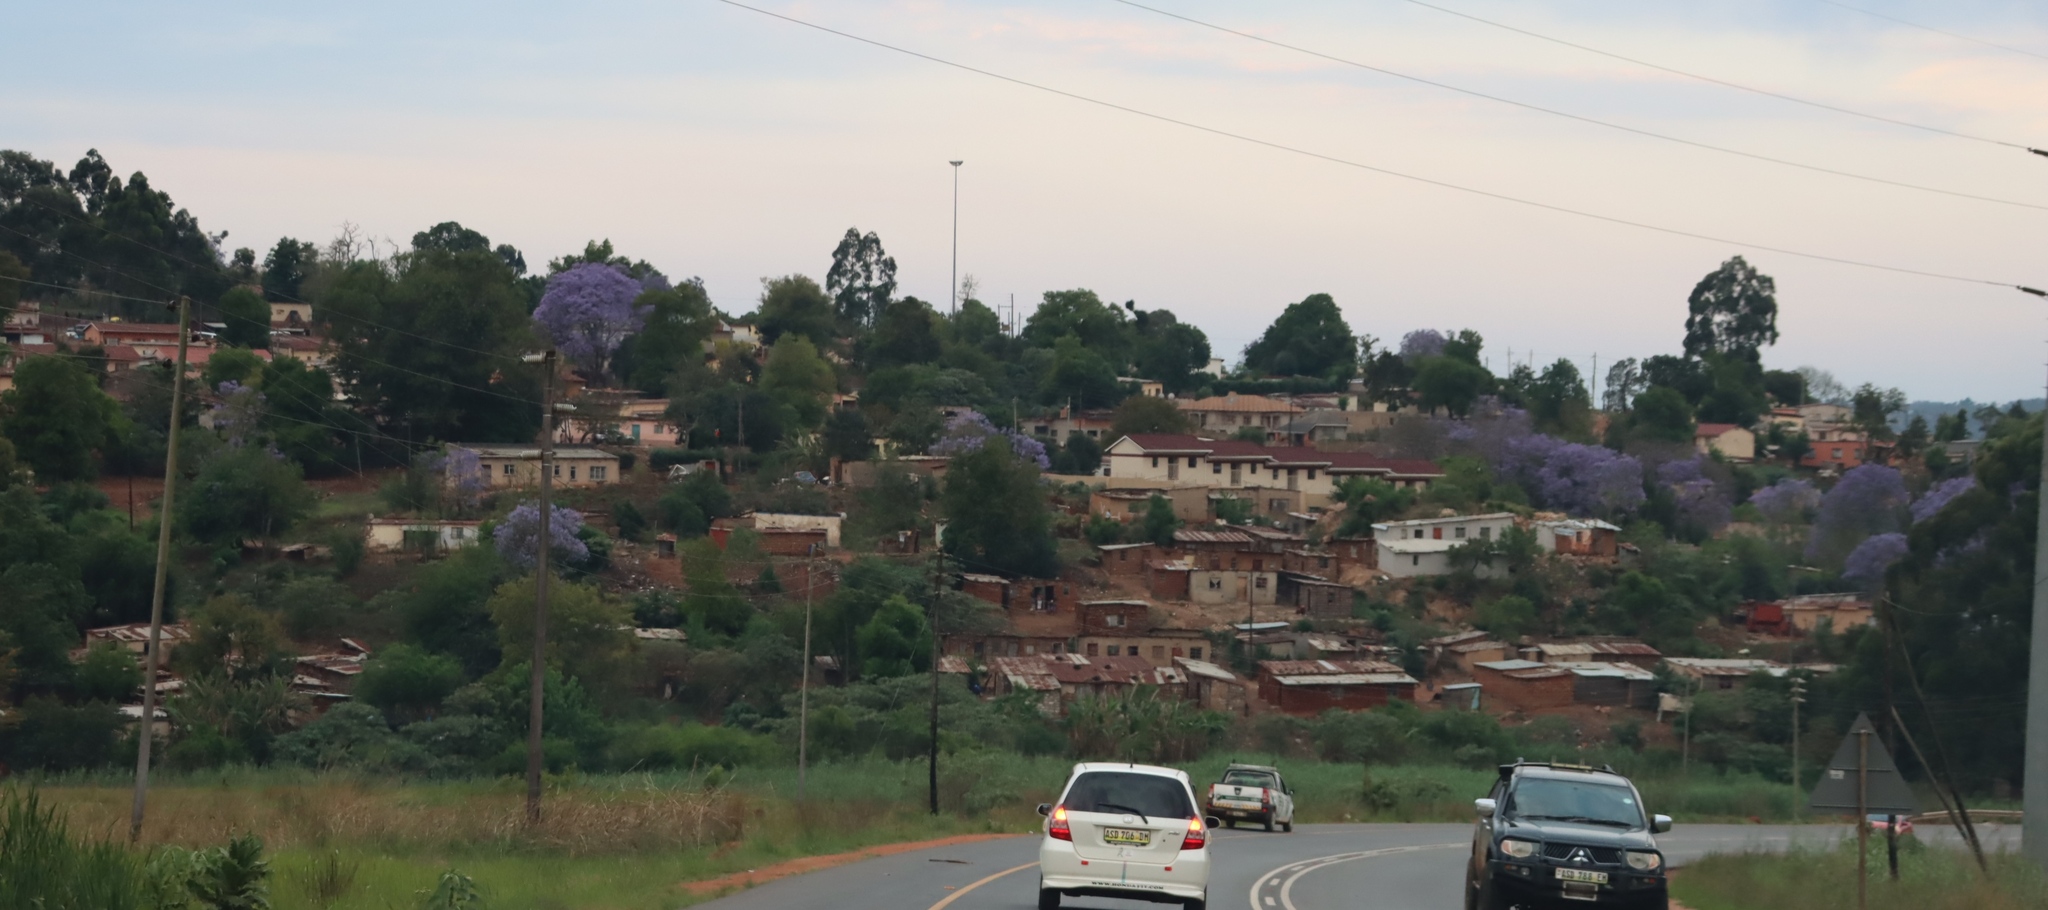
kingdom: Plantae
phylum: Tracheophyta
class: Magnoliopsida
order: Lamiales
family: Bignoniaceae
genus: Jacaranda
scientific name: Jacaranda mimosifolia
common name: Black poui
